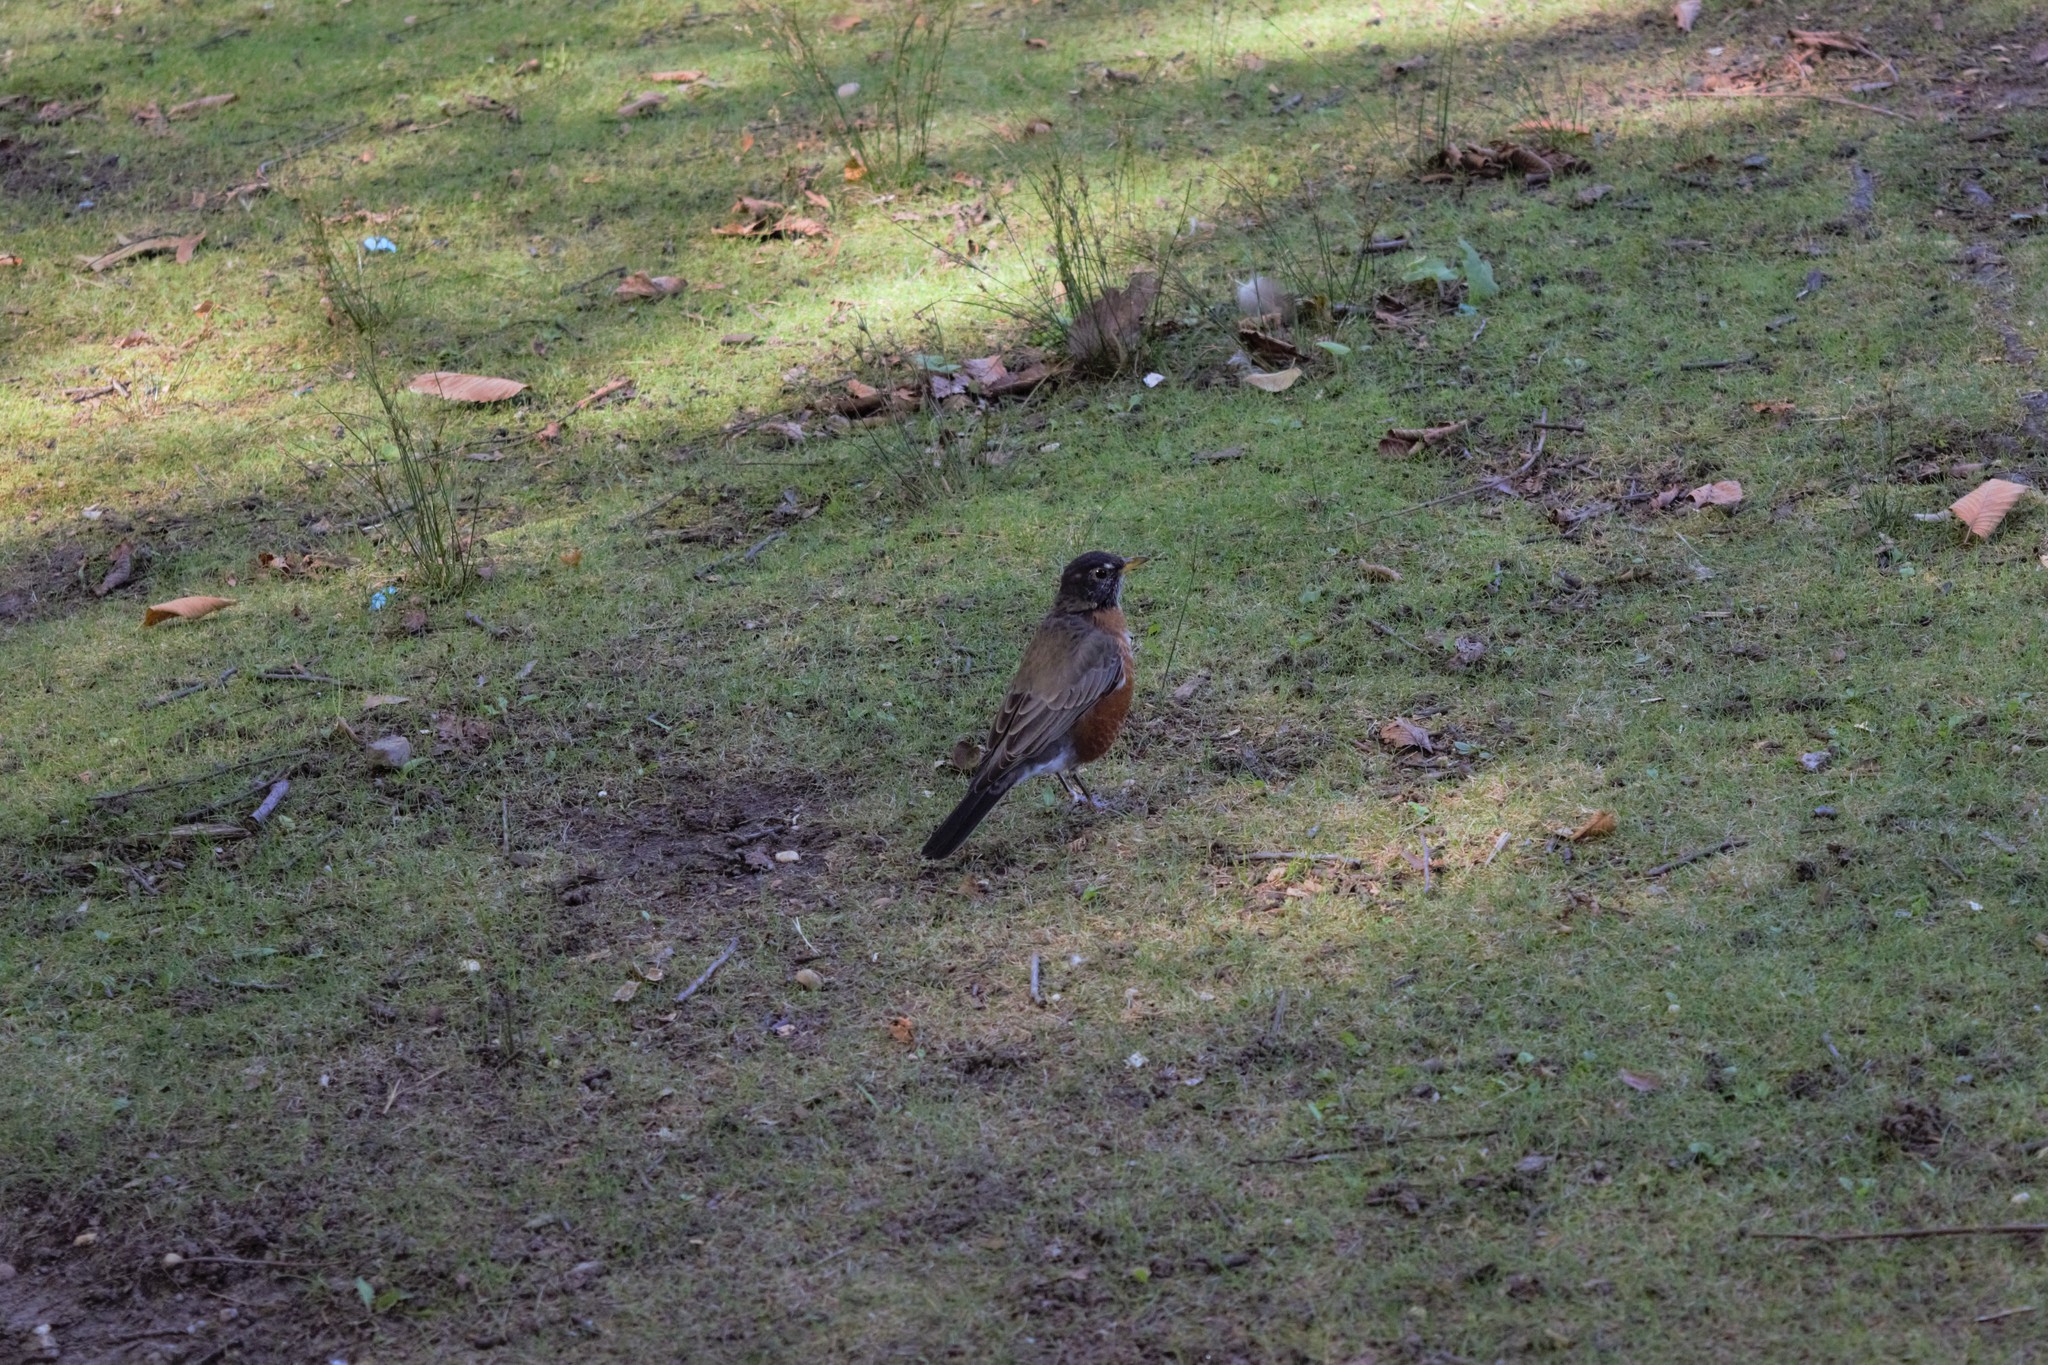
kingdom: Animalia
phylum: Chordata
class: Aves
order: Passeriformes
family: Turdidae
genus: Turdus
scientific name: Turdus migratorius
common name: American robin
